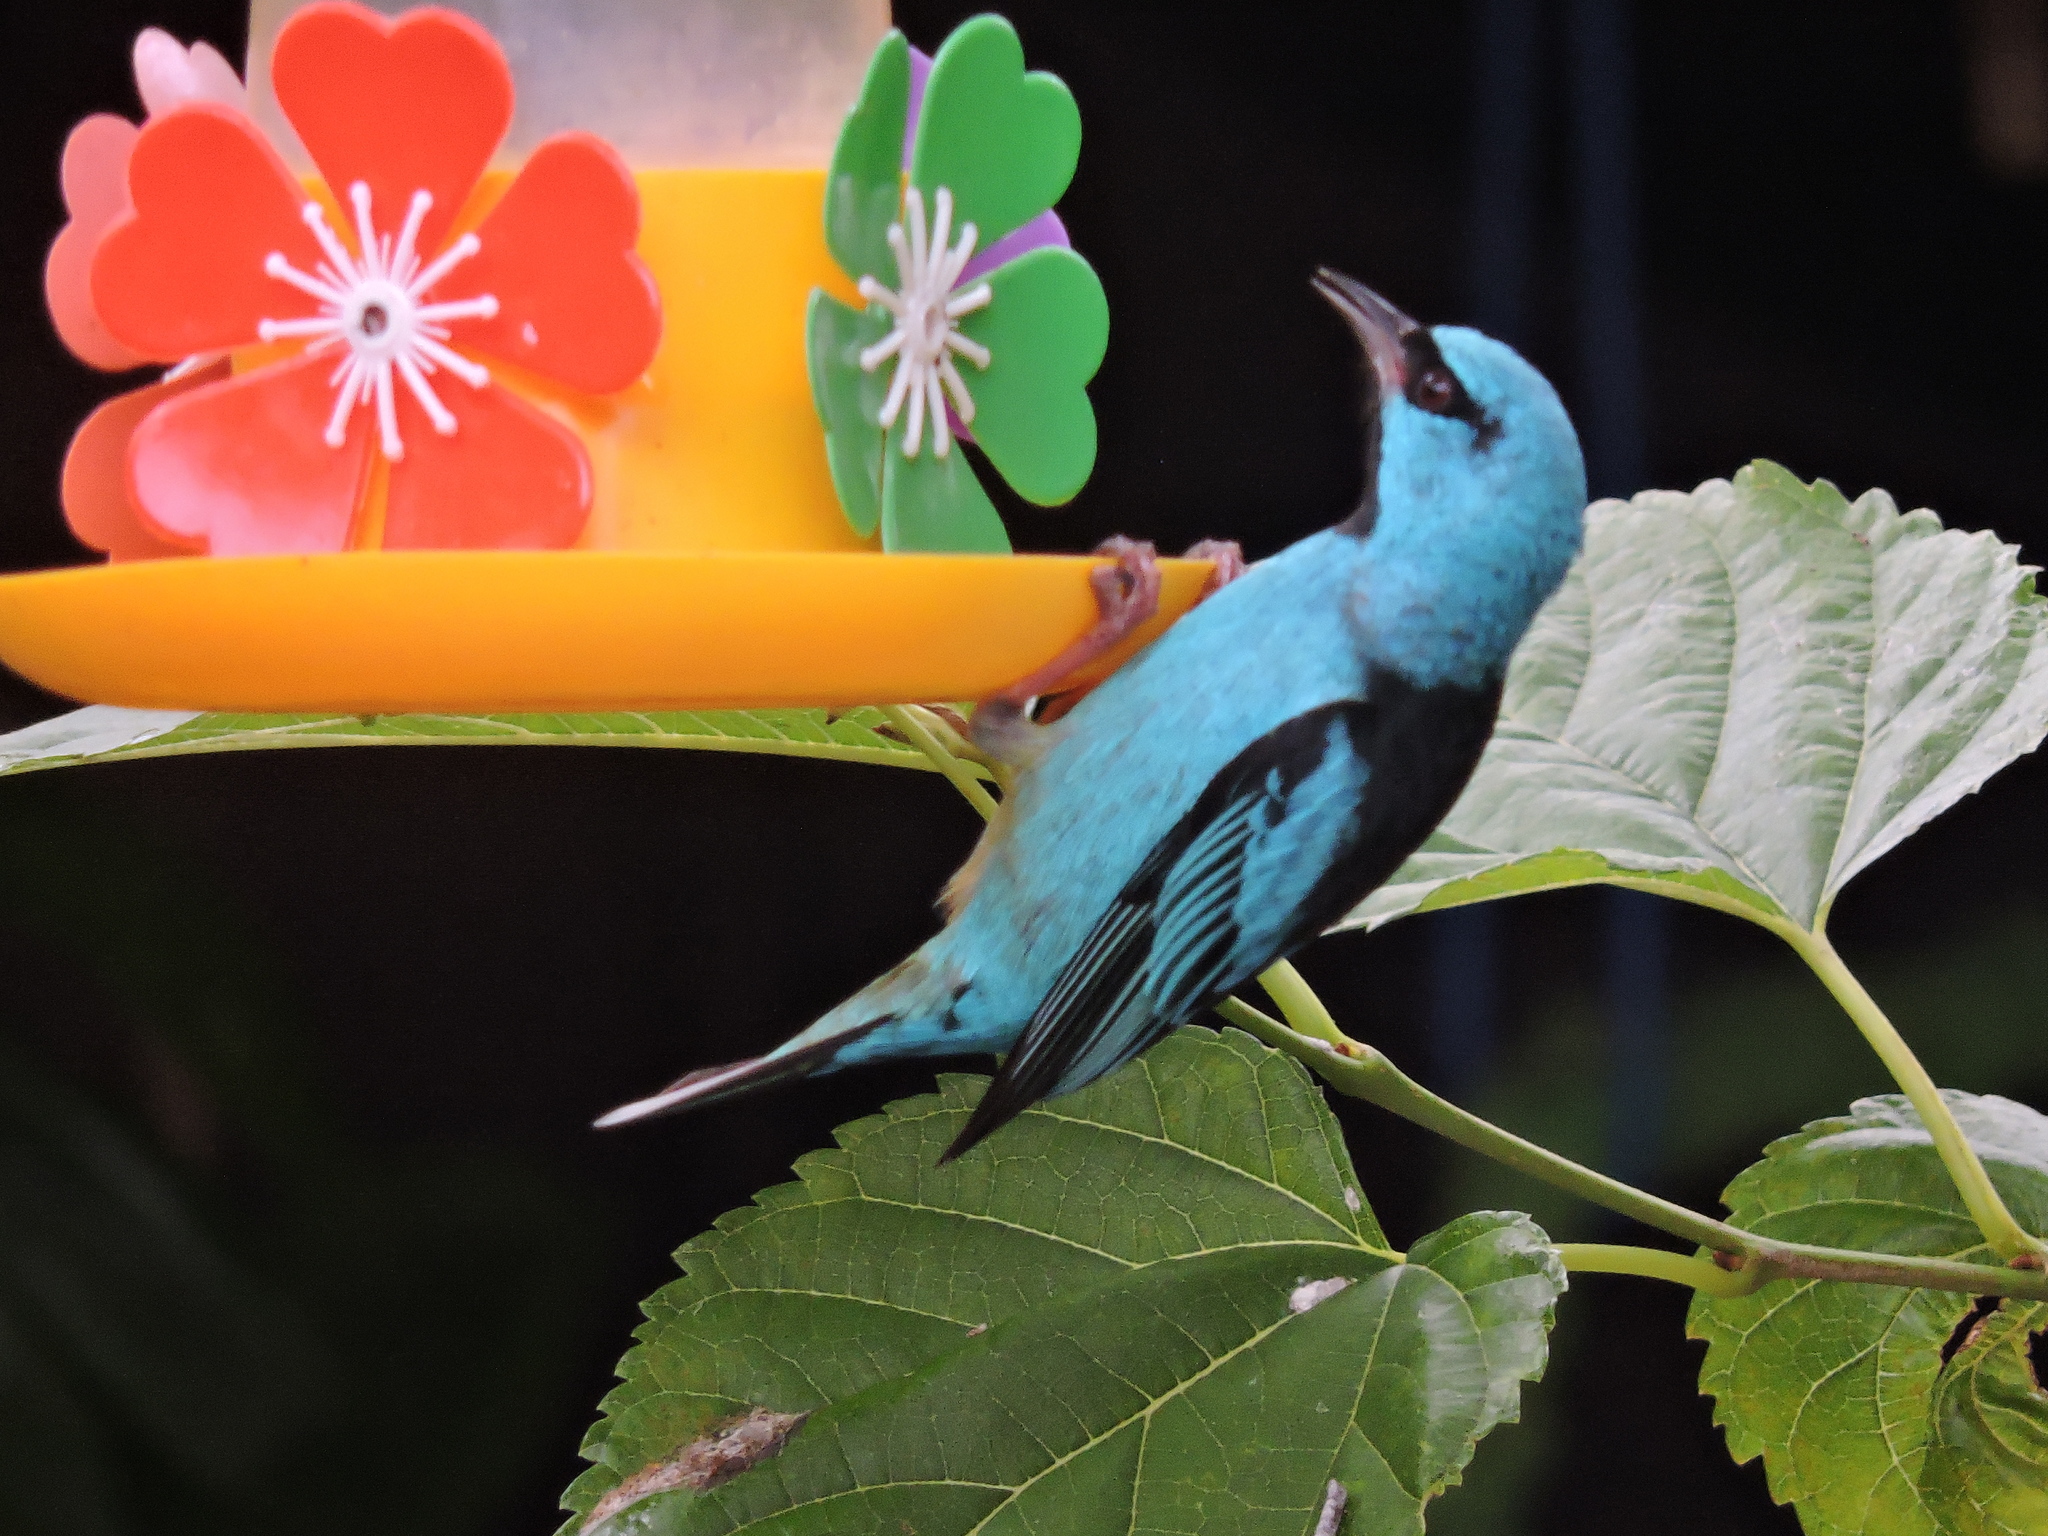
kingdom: Animalia
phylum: Chordata
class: Aves
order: Passeriformes
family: Thraupidae
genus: Dacnis
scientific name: Dacnis cayana
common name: Blue dacnis
